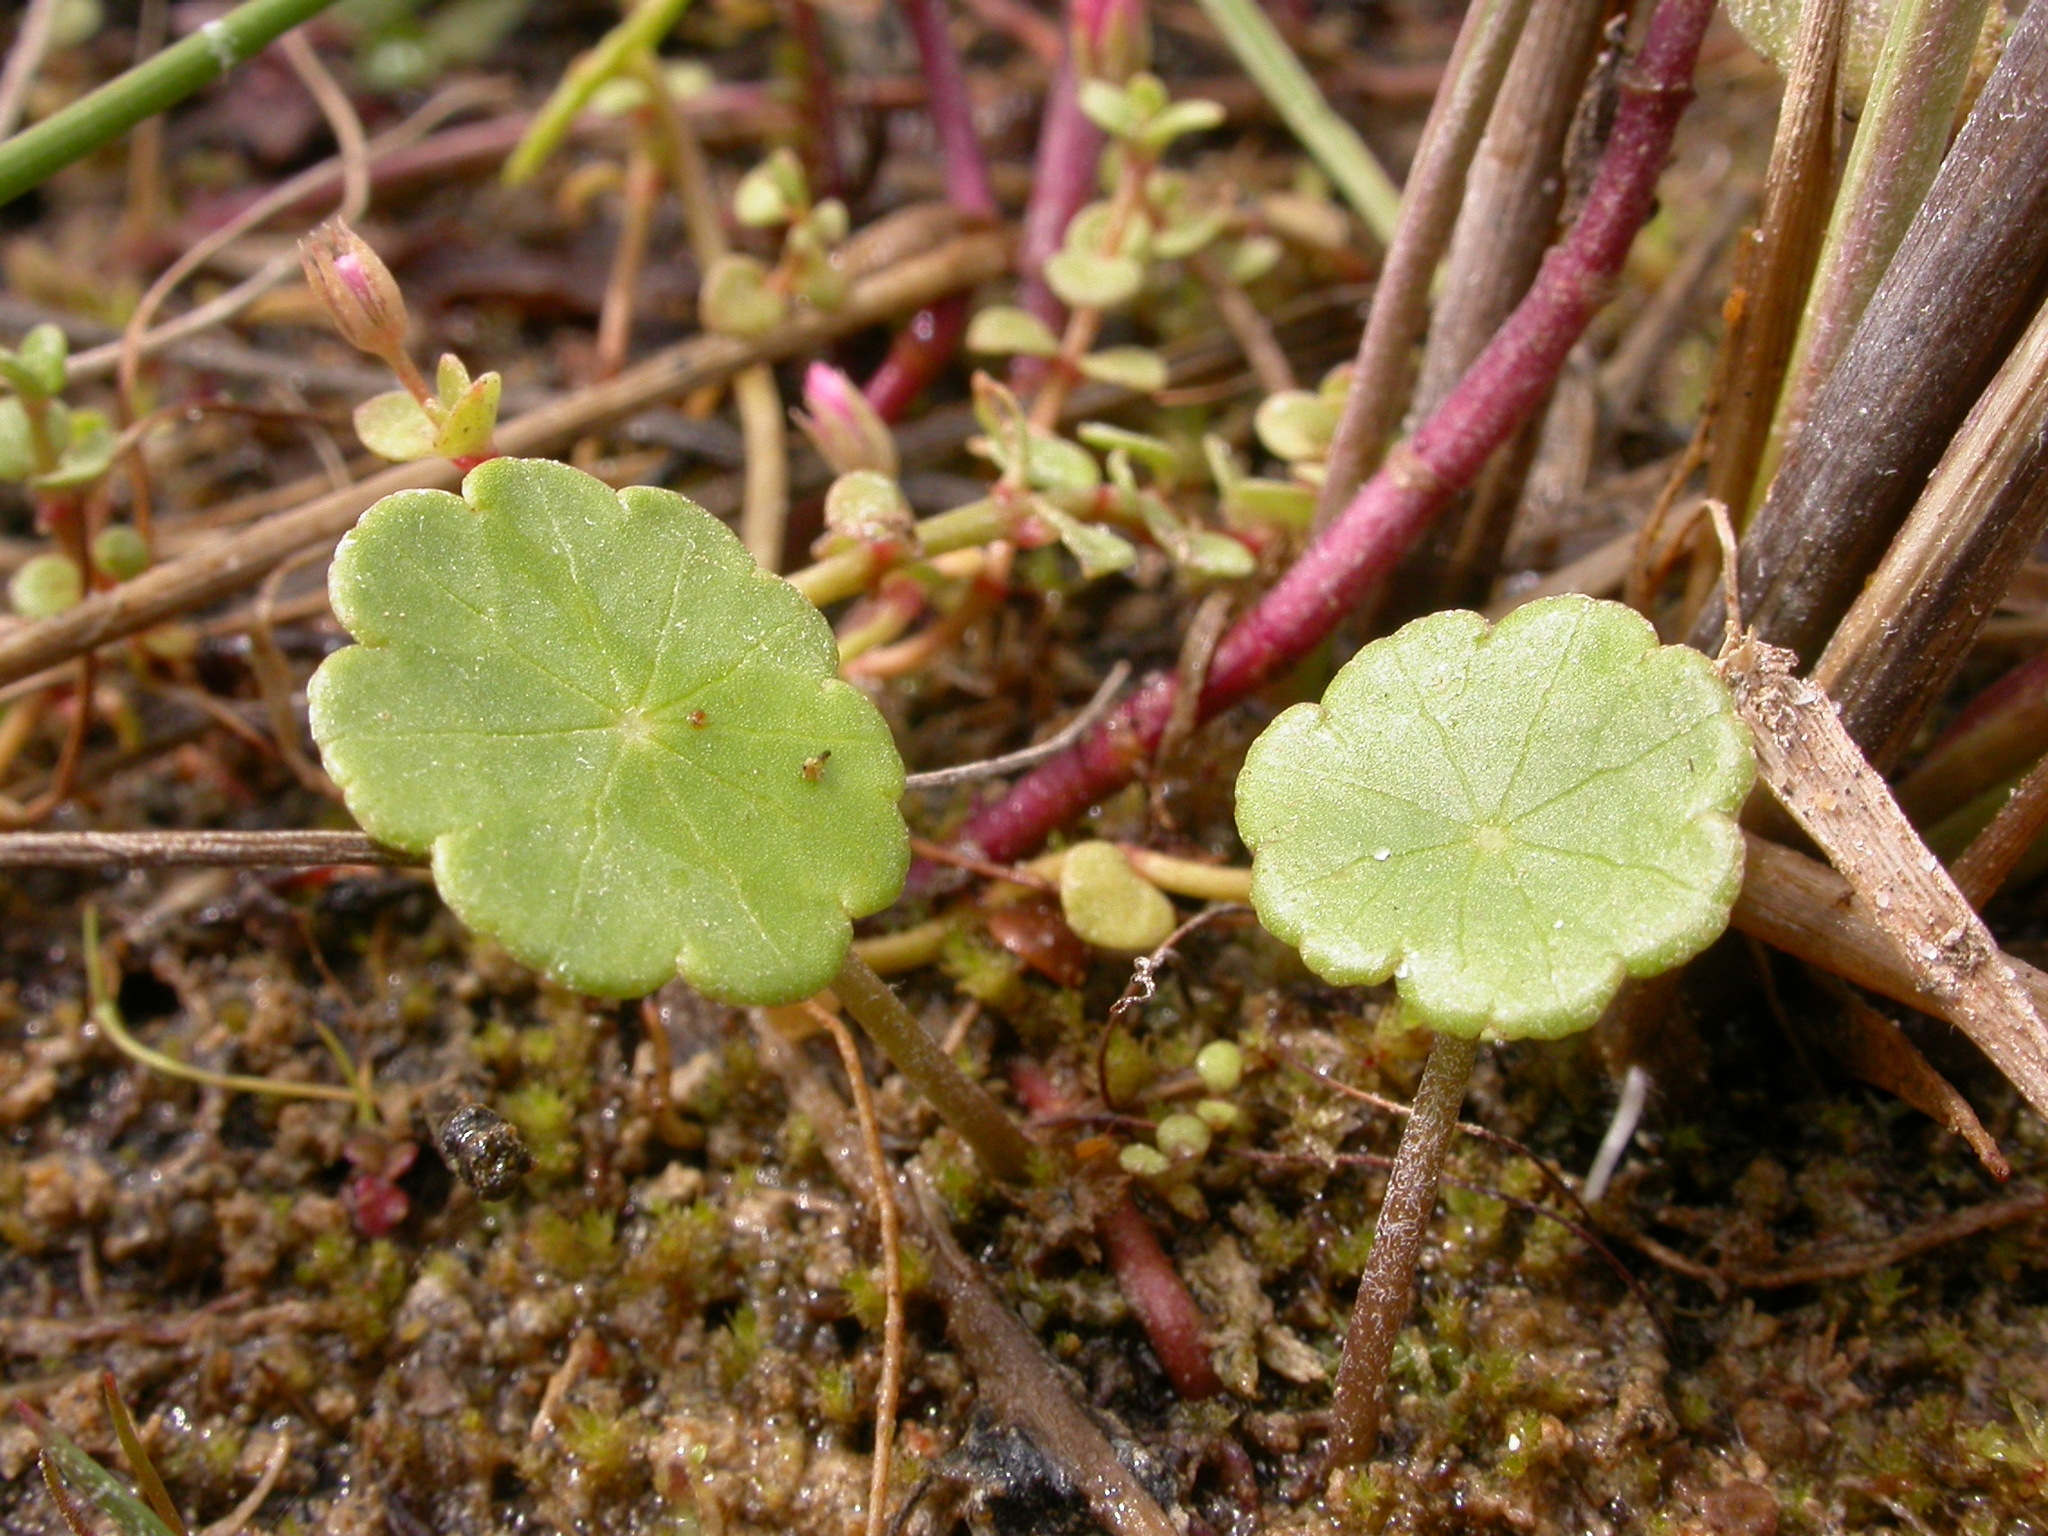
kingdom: Plantae
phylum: Tracheophyta
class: Magnoliopsida
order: Apiales
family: Araliaceae
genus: Hydrocotyle
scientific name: Hydrocotyle vulgaris
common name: Marsh pennywort
